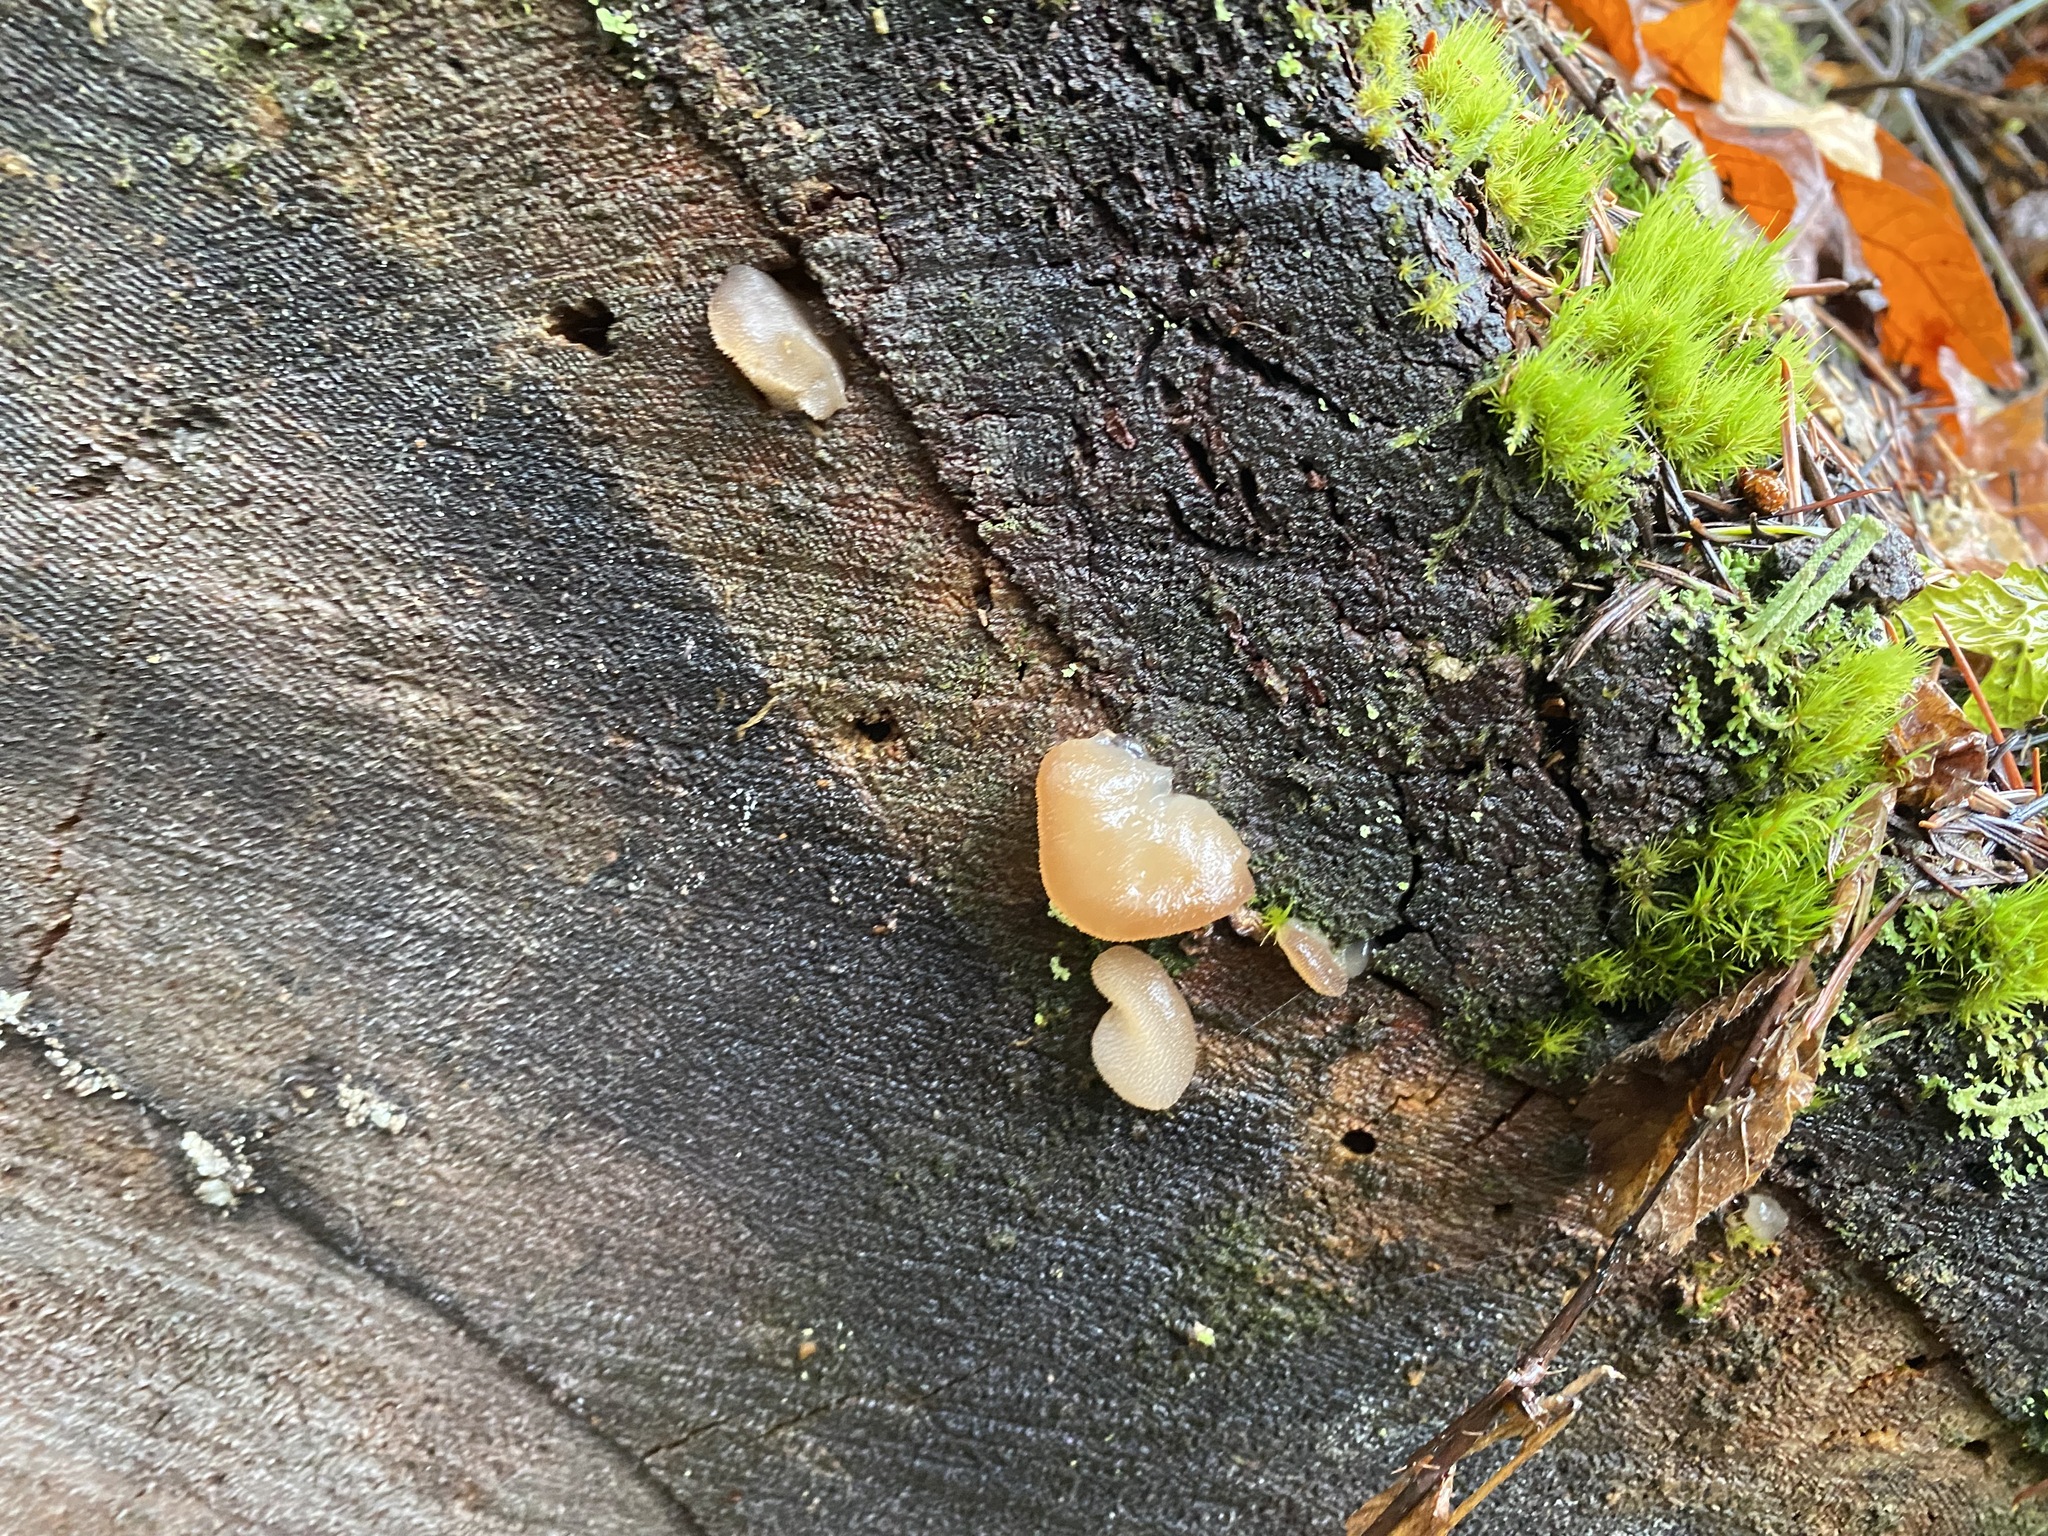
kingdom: Fungi
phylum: Basidiomycota
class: Agaricomycetes
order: Auriculariales
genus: Pseudohydnum
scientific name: Pseudohydnum gelatinosum
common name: Jelly tongue
